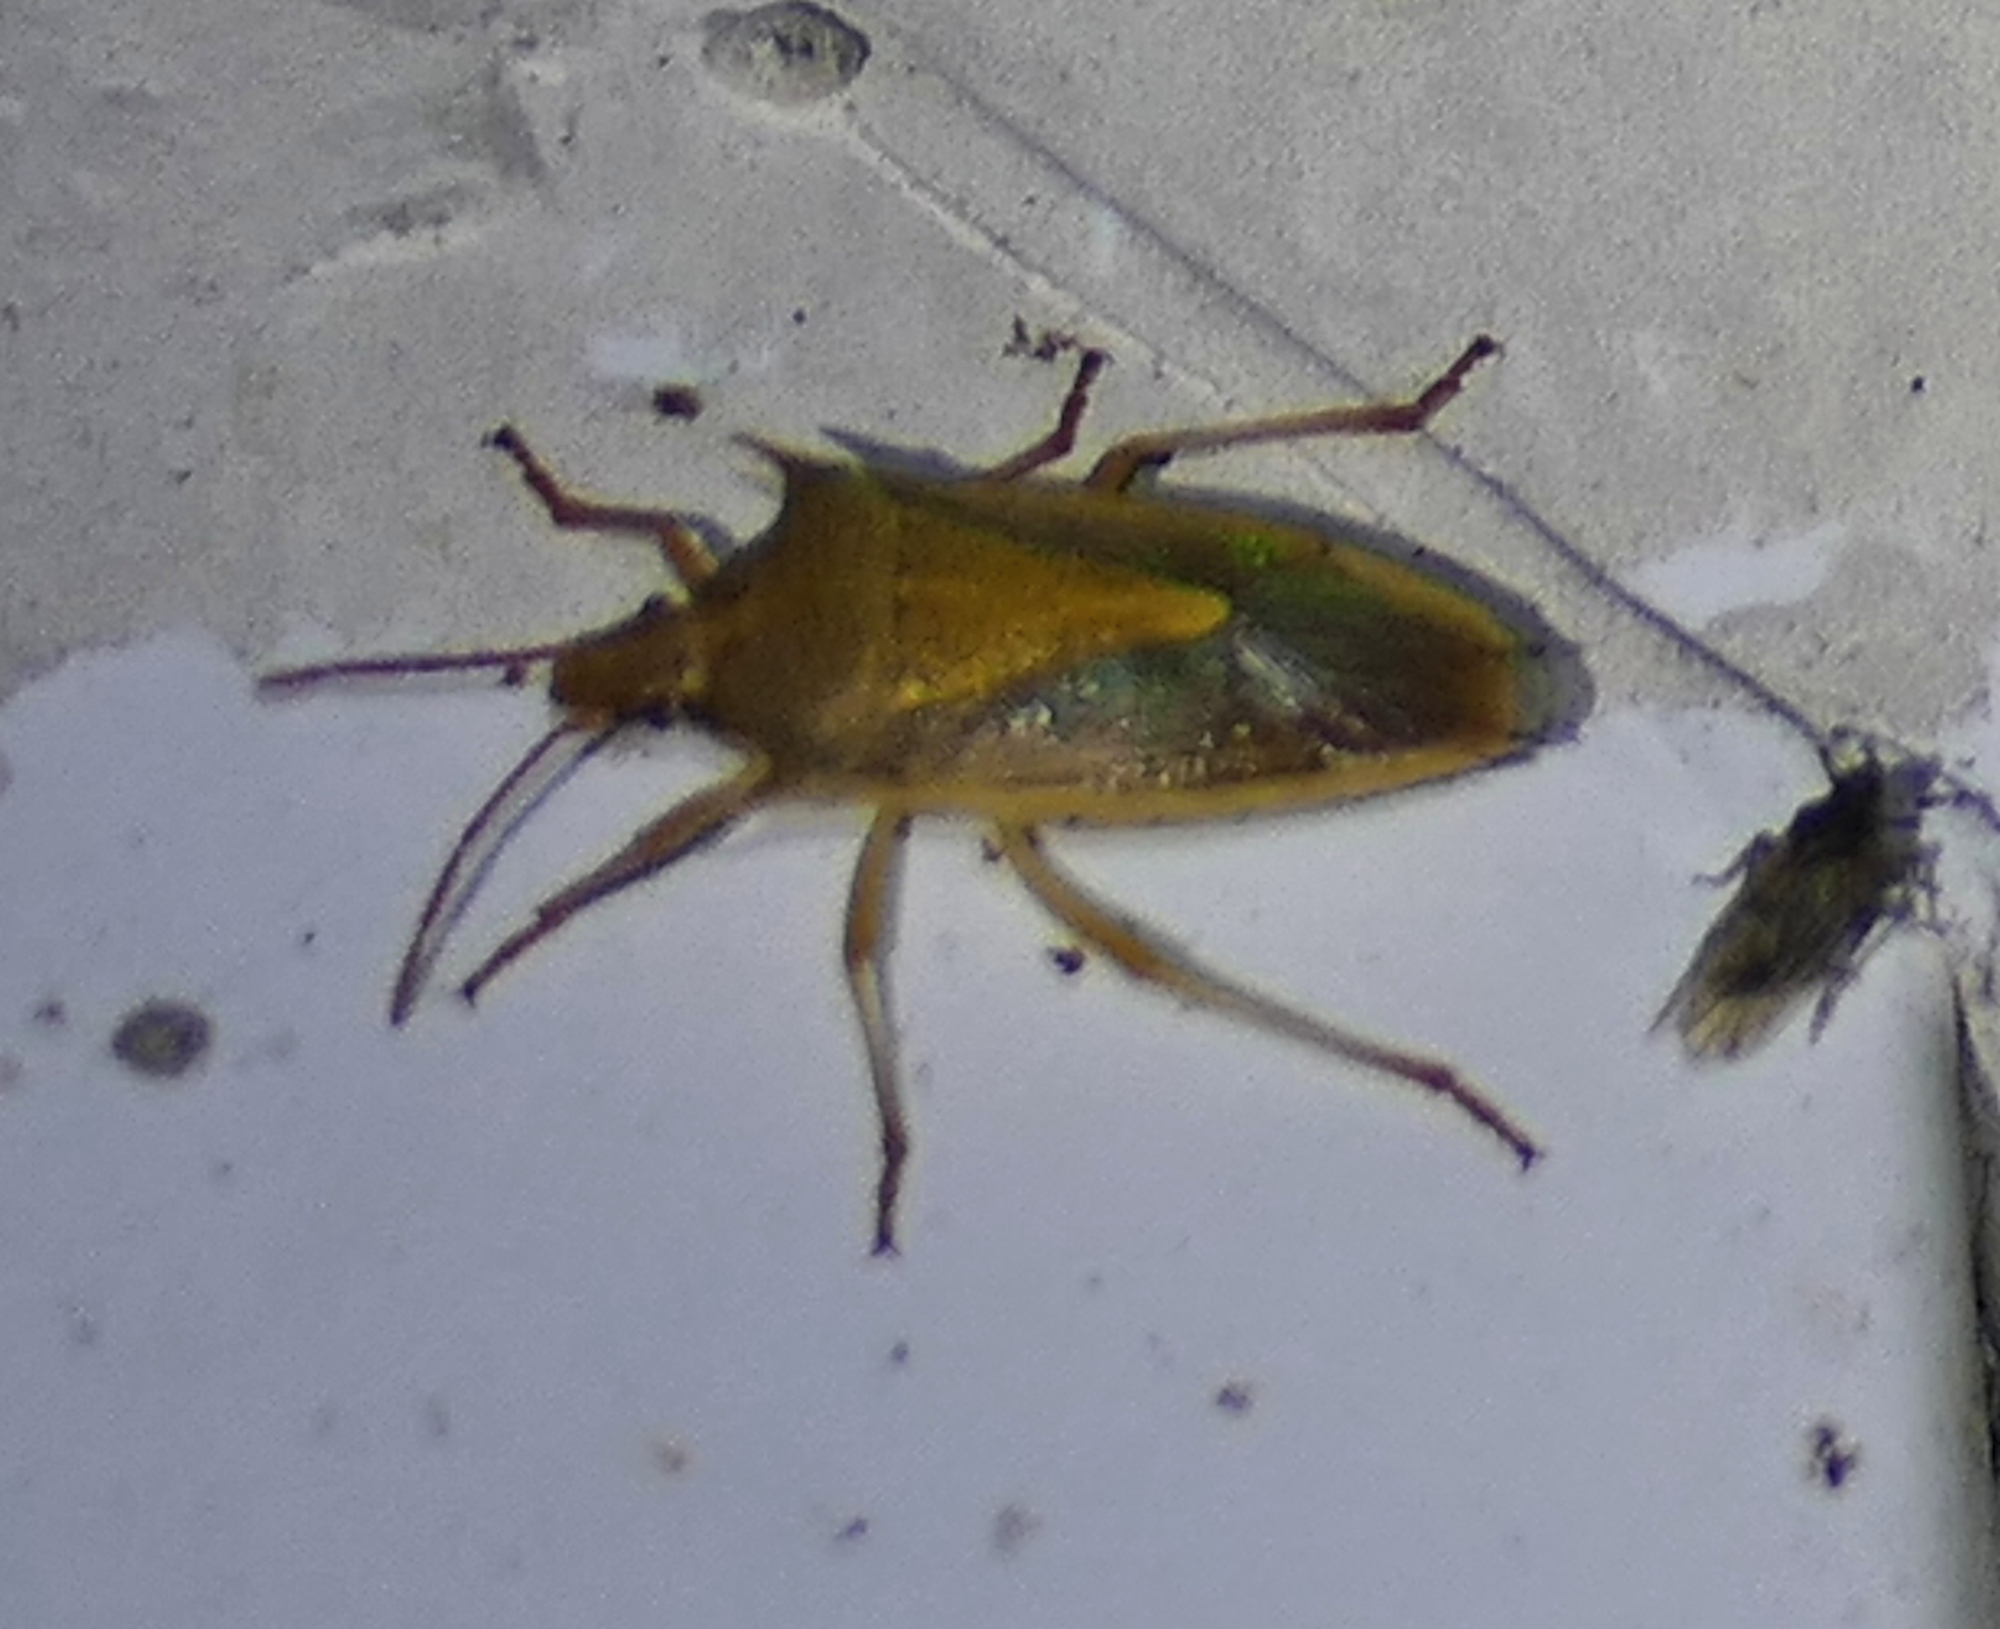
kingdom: Animalia
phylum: Arthropoda
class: Insecta
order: Hemiptera
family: Pentatomidae
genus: Oebalus
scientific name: Oebalus pugnax
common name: Rice stink bug
